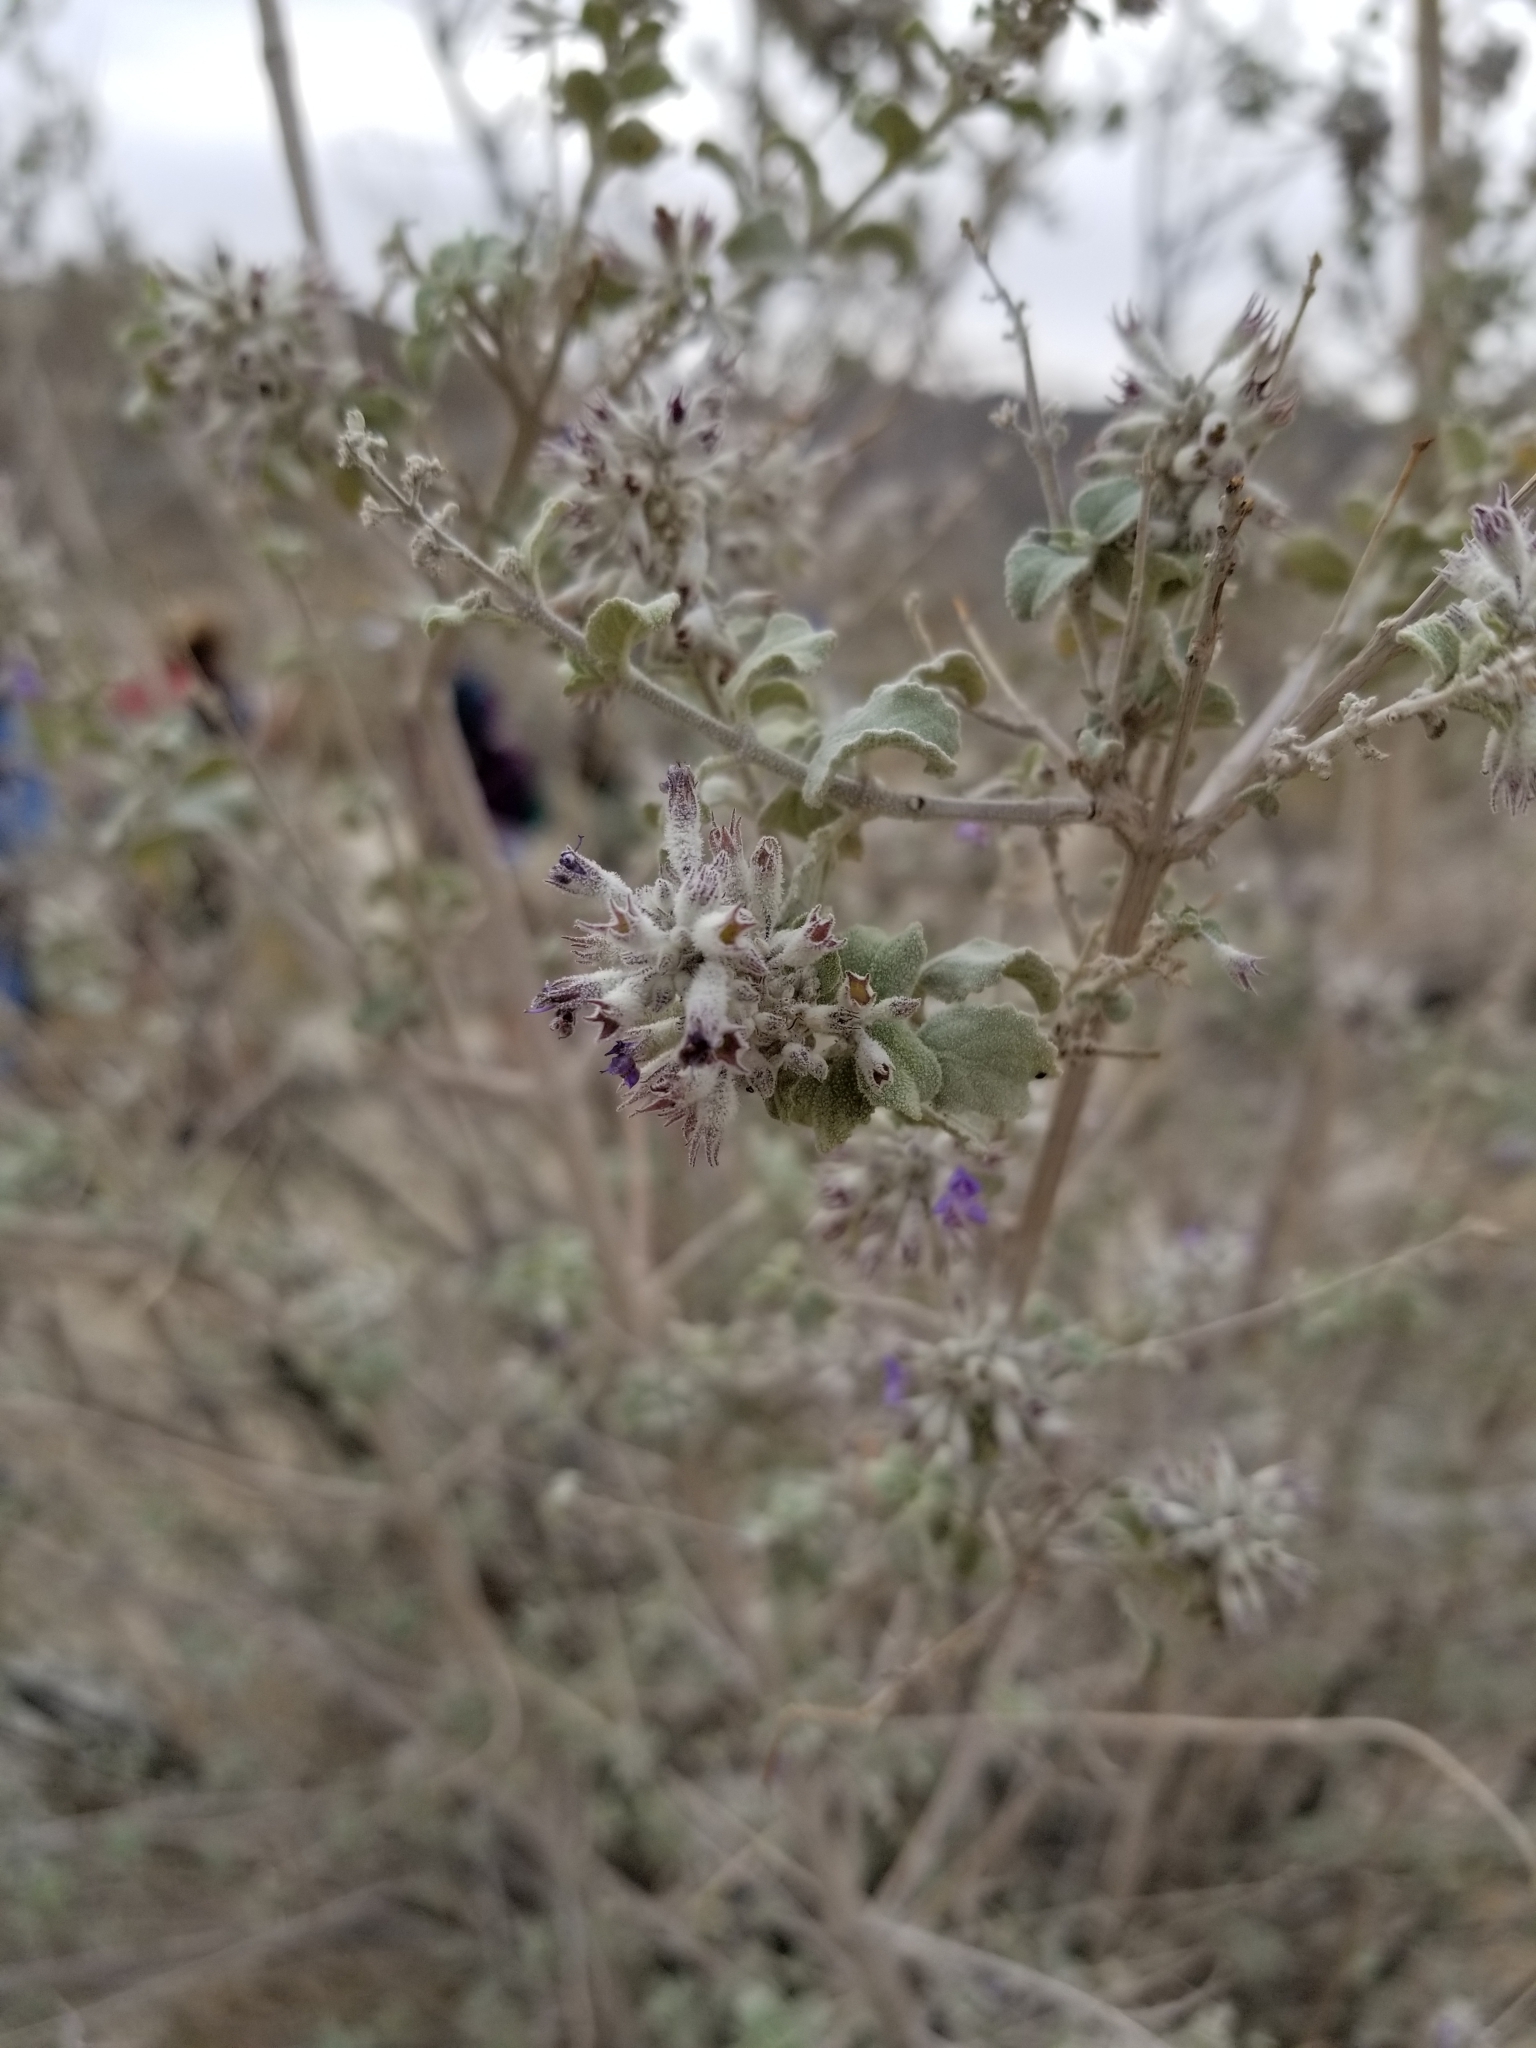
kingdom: Plantae
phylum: Tracheophyta
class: Magnoliopsida
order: Lamiales
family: Lamiaceae
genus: Condea
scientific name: Condea emoryi
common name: Chia
